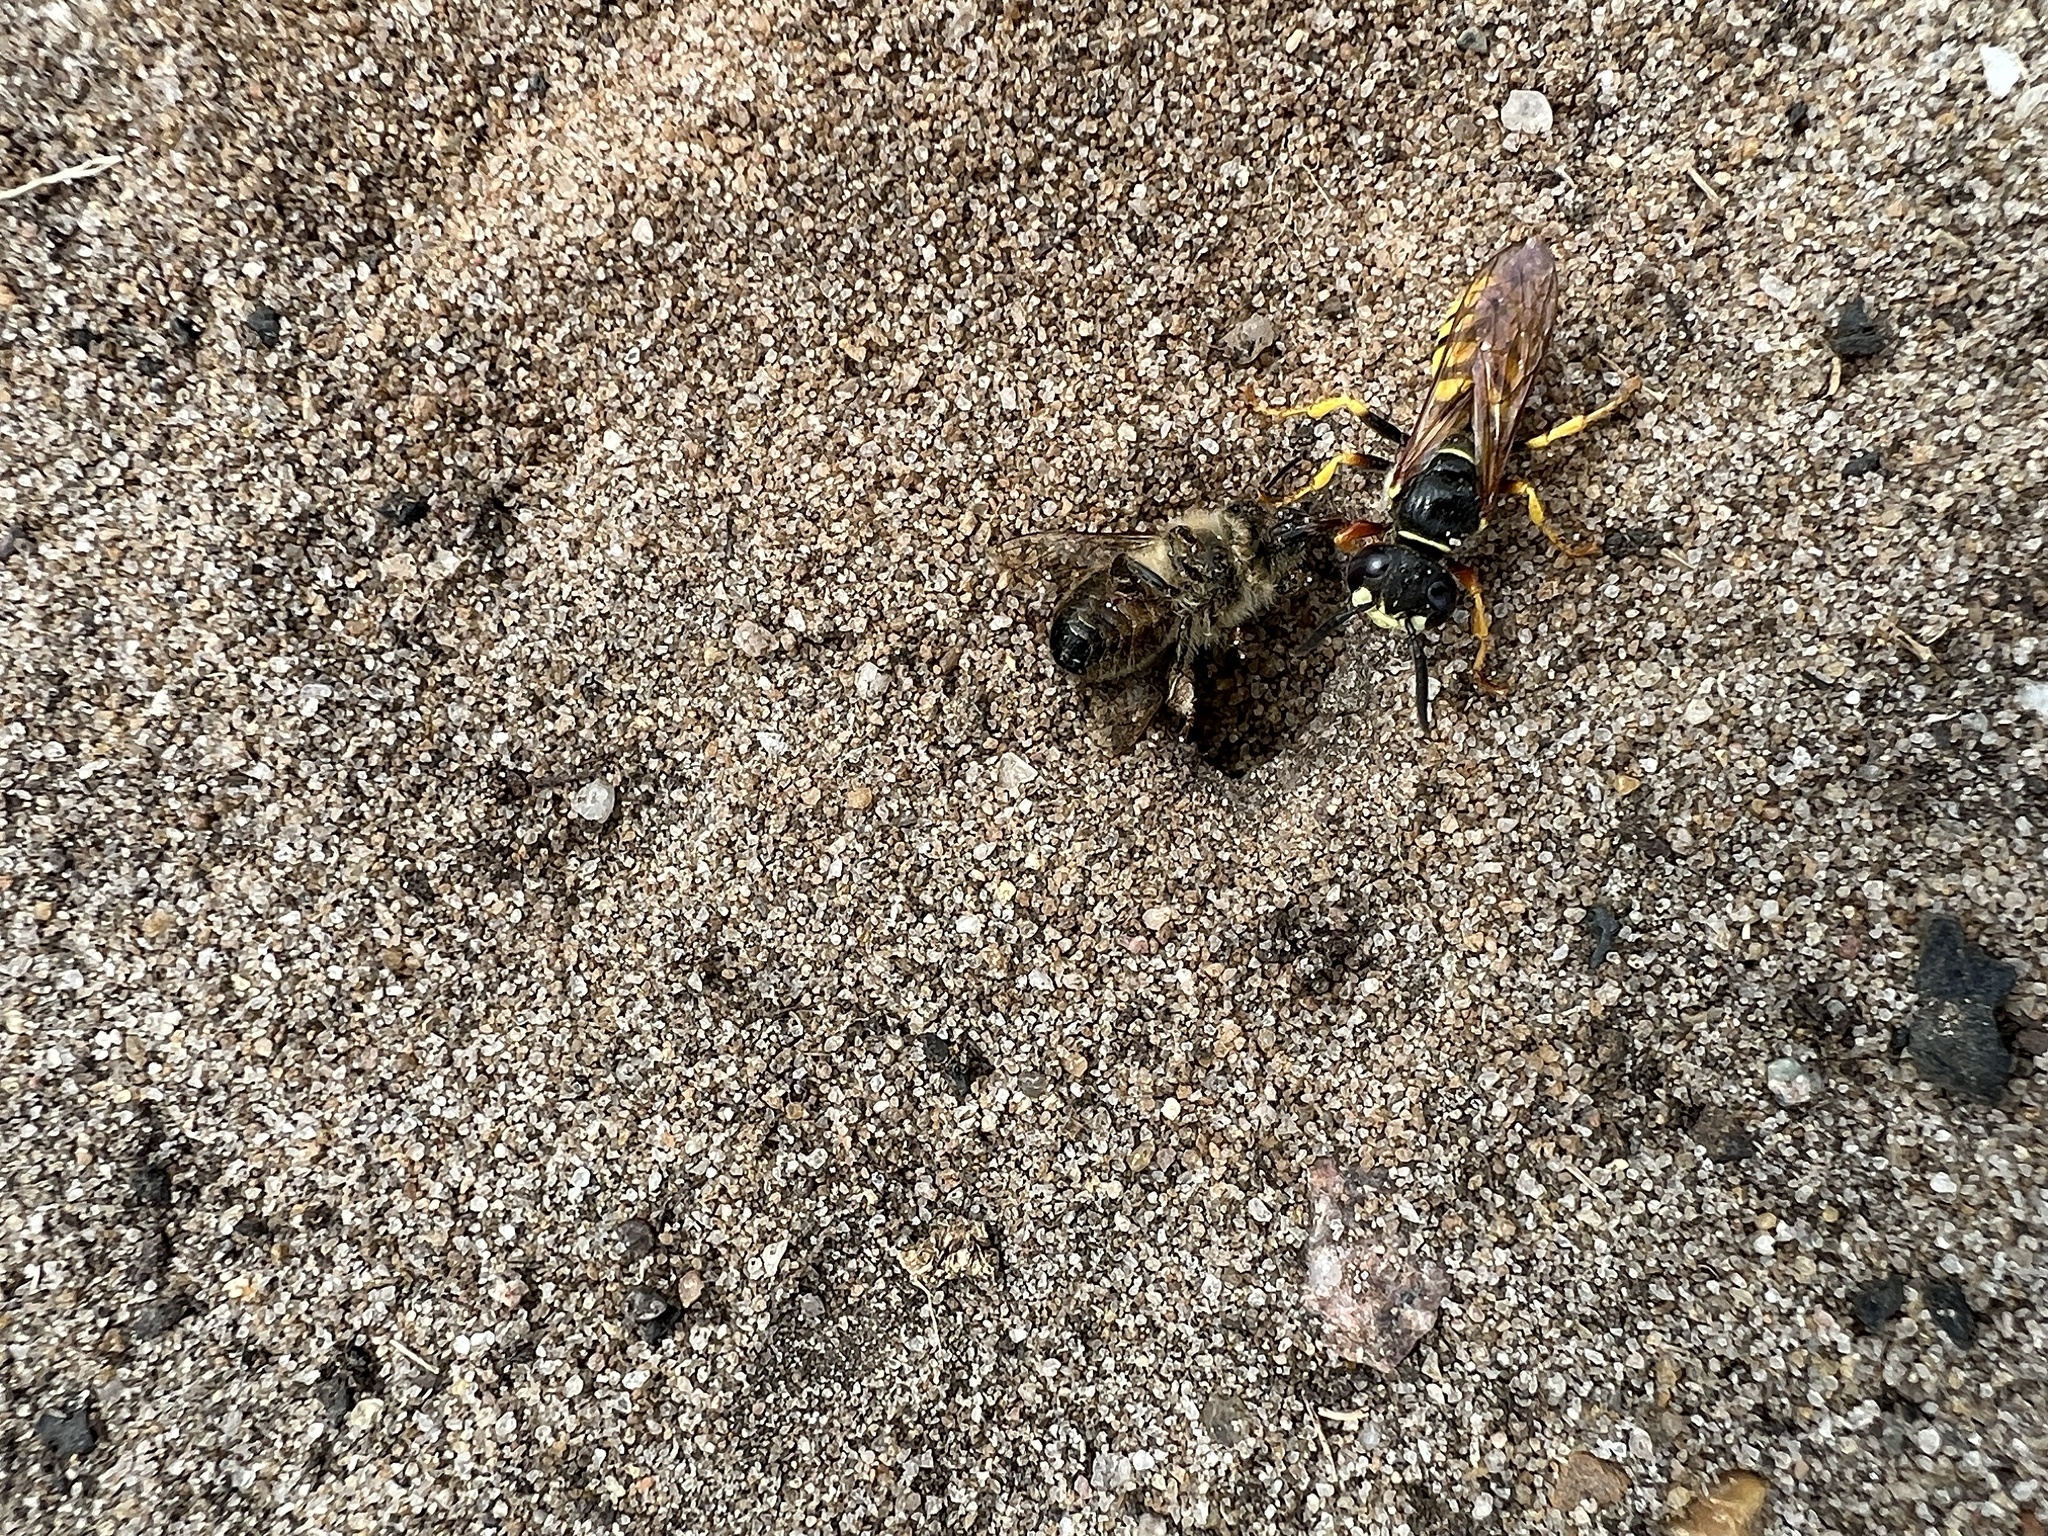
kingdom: Animalia
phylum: Arthropoda
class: Insecta
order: Hymenoptera
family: Crabronidae
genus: Philanthus
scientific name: Philanthus triangulum
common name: Bee wolf
